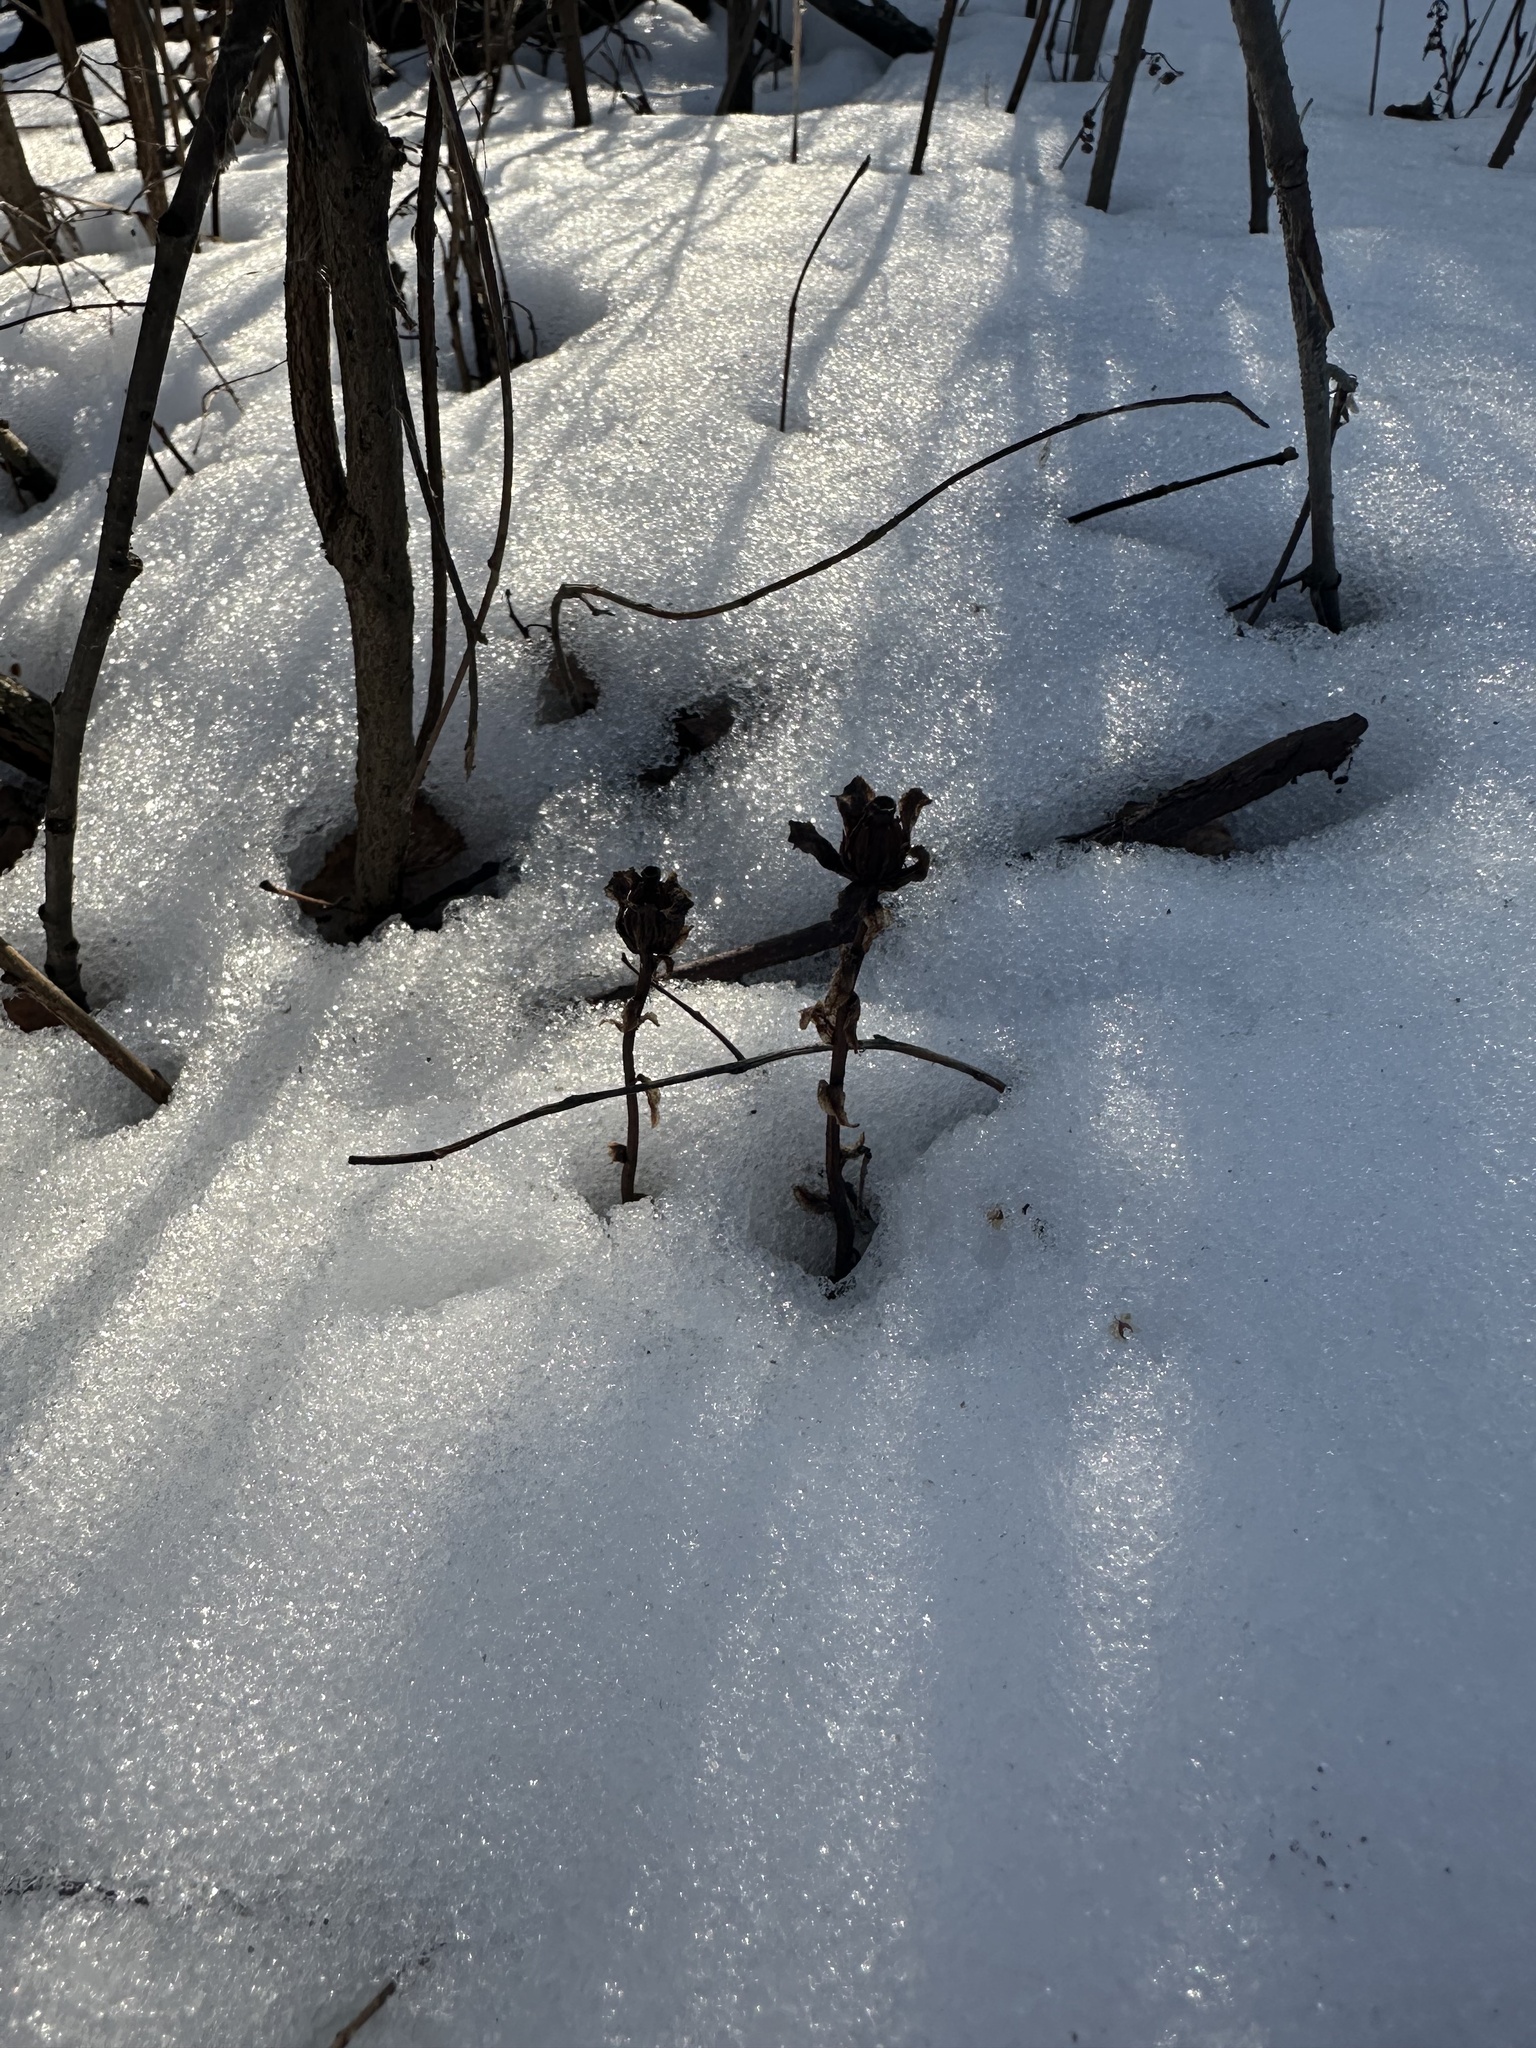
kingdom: Plantae
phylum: Tracheophyta
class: Magnoliopsida
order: Ericales
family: Ericaceae
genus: Monotropa
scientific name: Monotropa uniflora
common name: Convulsion root
